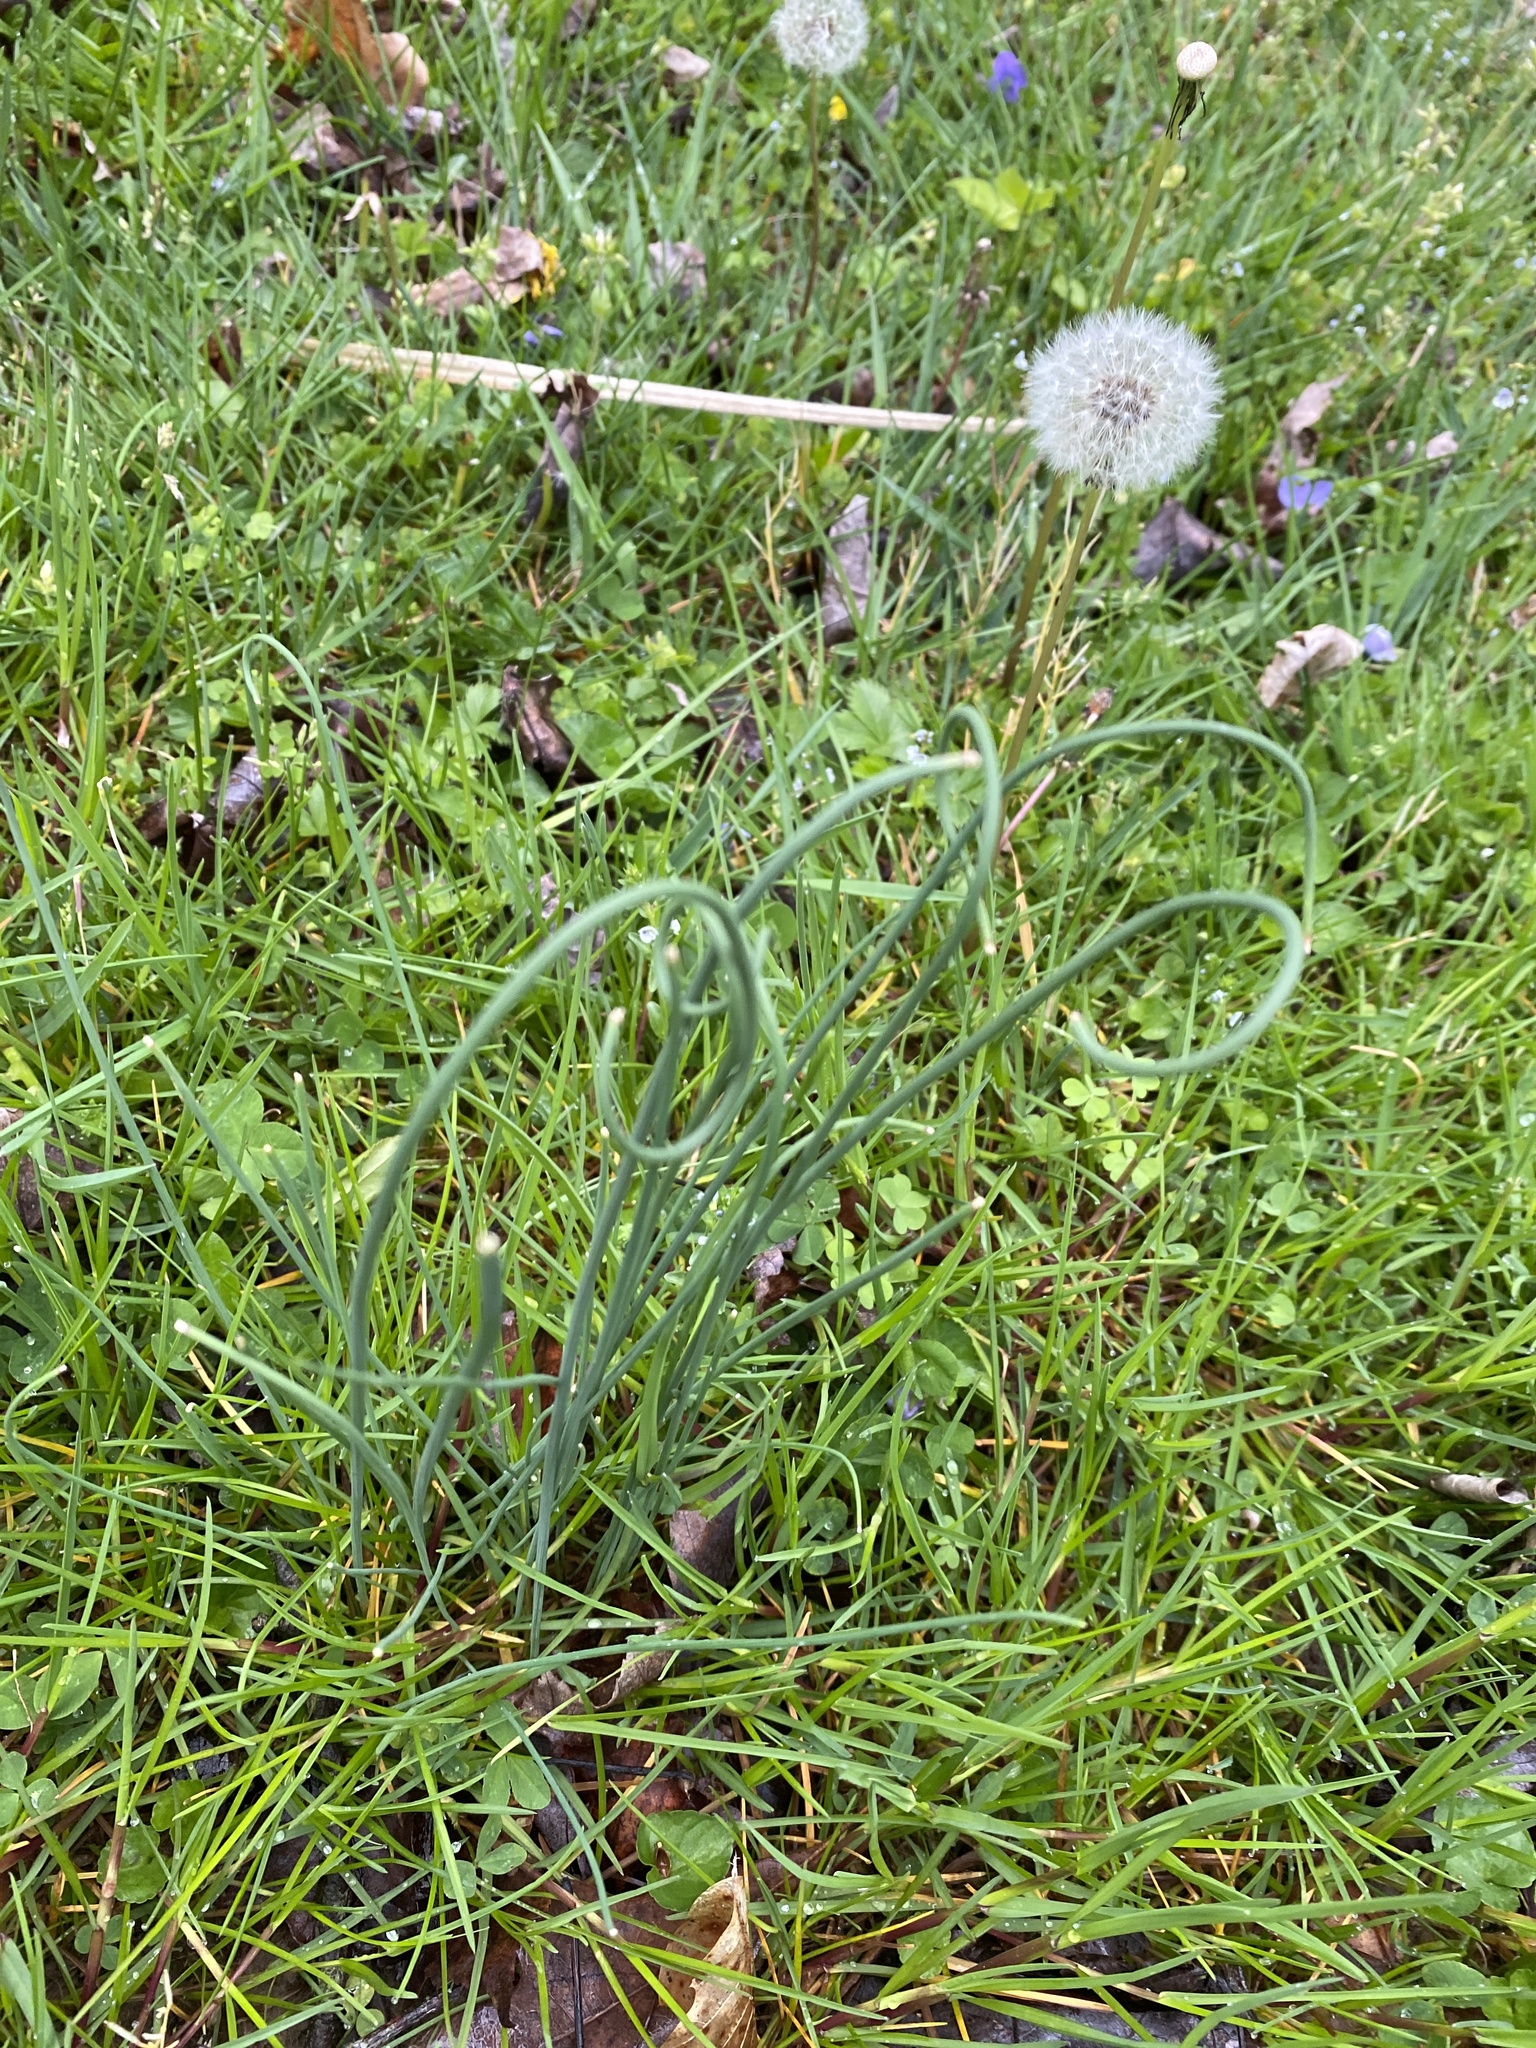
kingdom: Plantae
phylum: Tracheophyta
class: Liliopsida
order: Asparagales
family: Amaryllidaceae
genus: Allium
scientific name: Allium vineale
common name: Crow garlic
